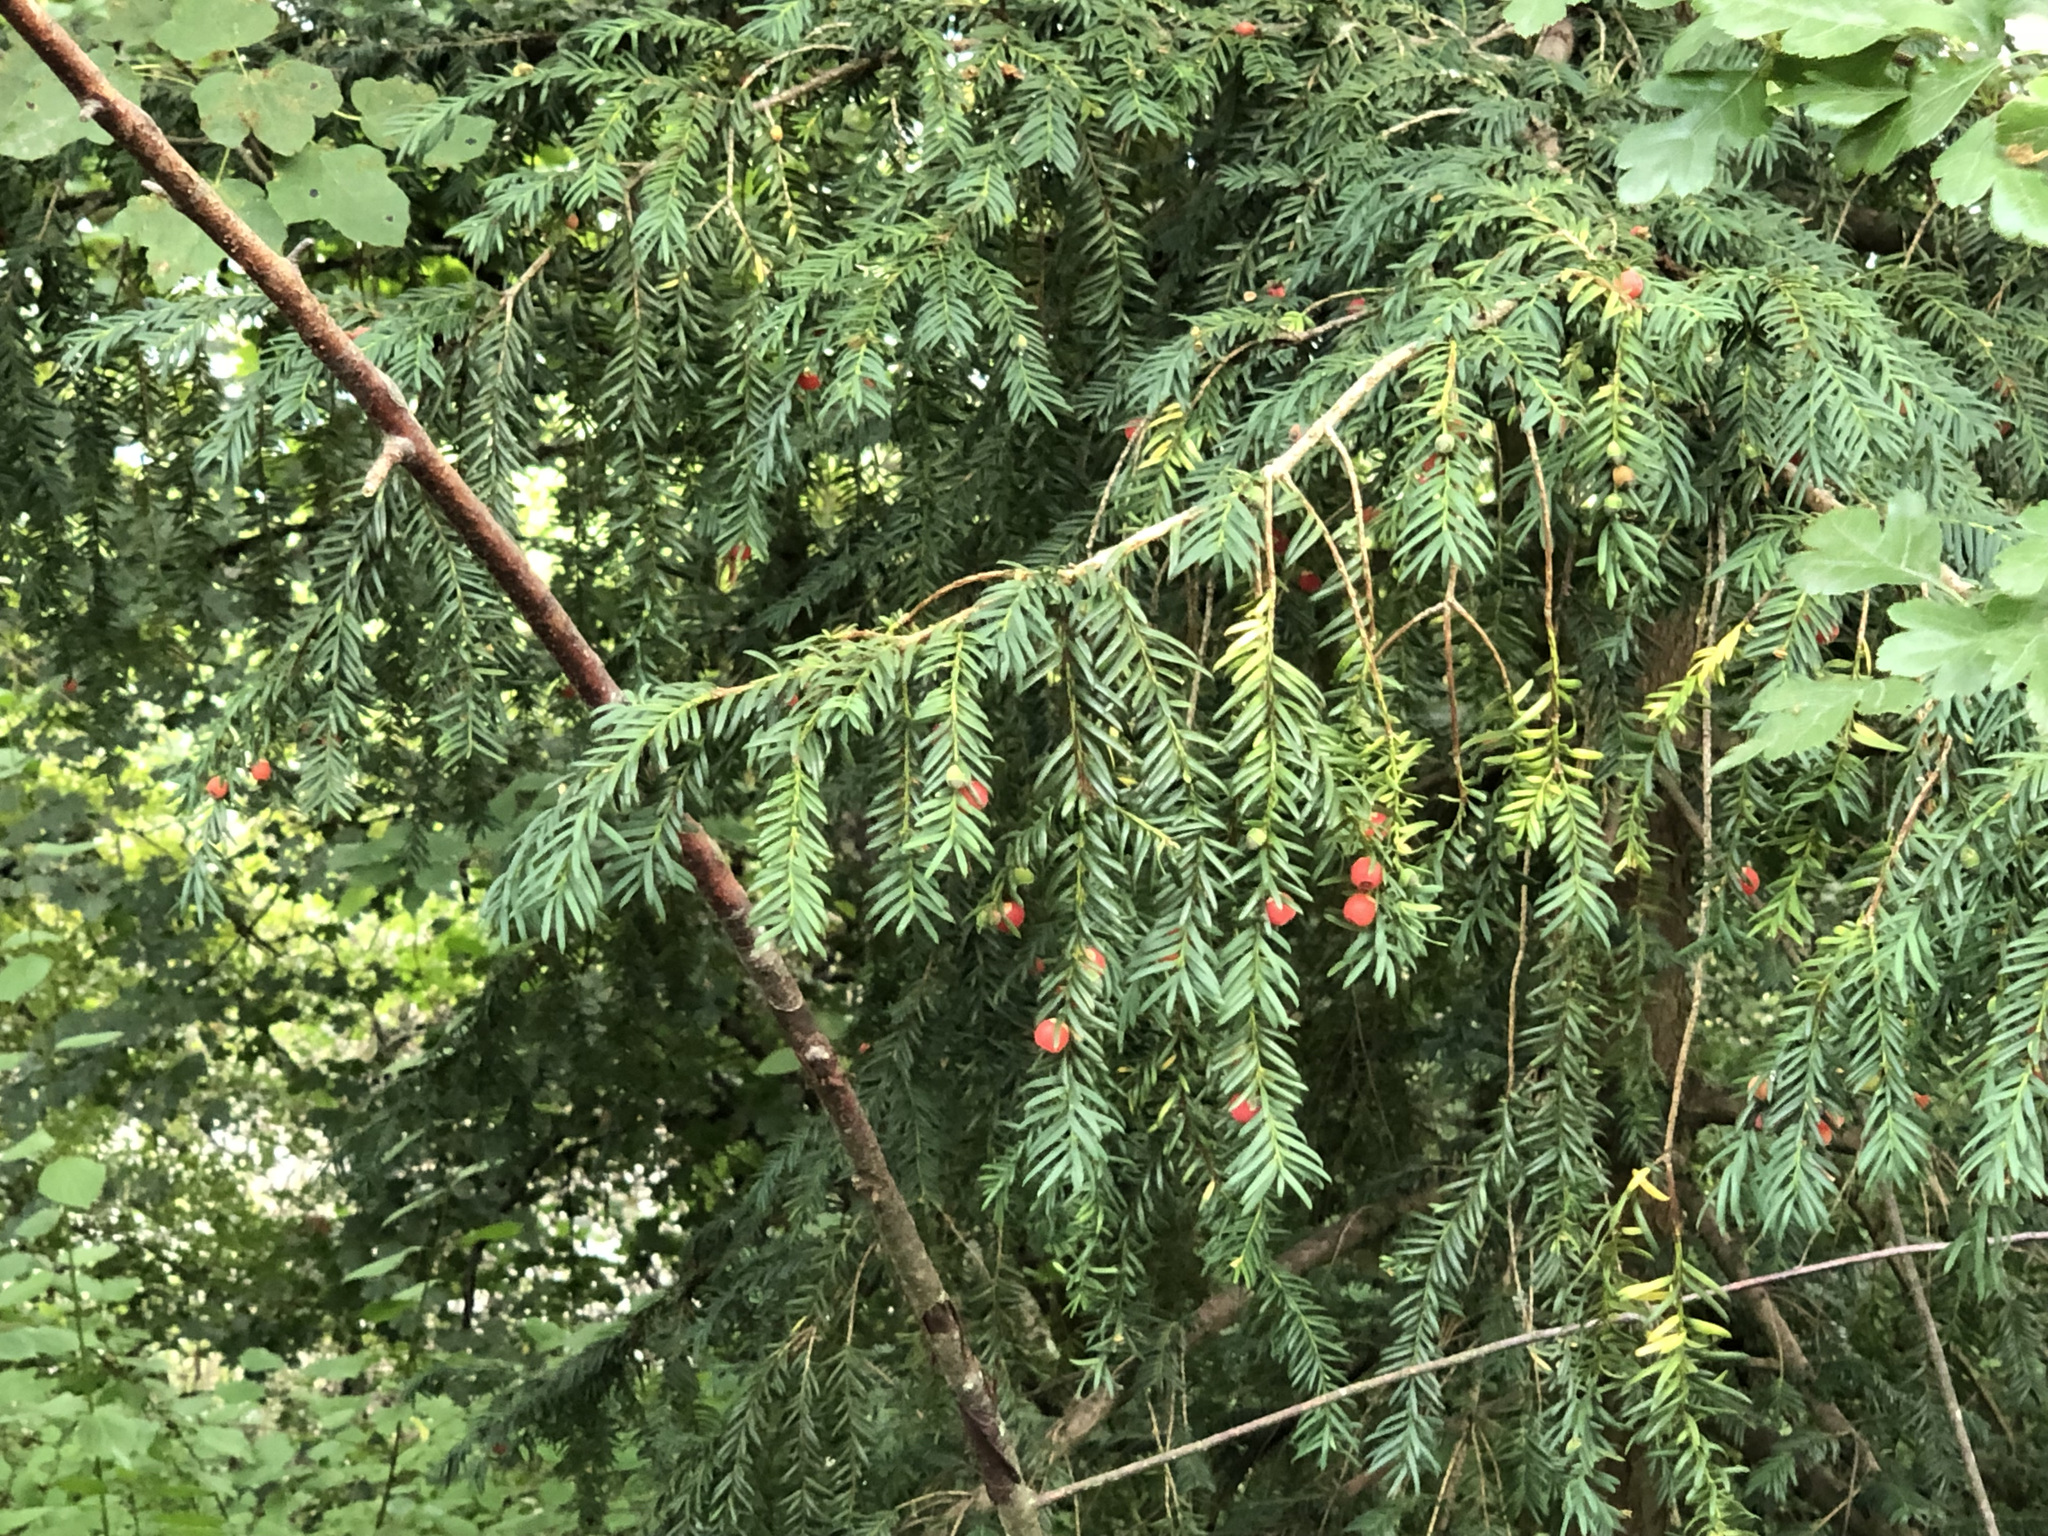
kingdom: Plantae
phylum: Tracheophyta
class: Pinopsida
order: Pinales
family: Taxaceae
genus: Taxus
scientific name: Taxus baccata
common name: Yew
